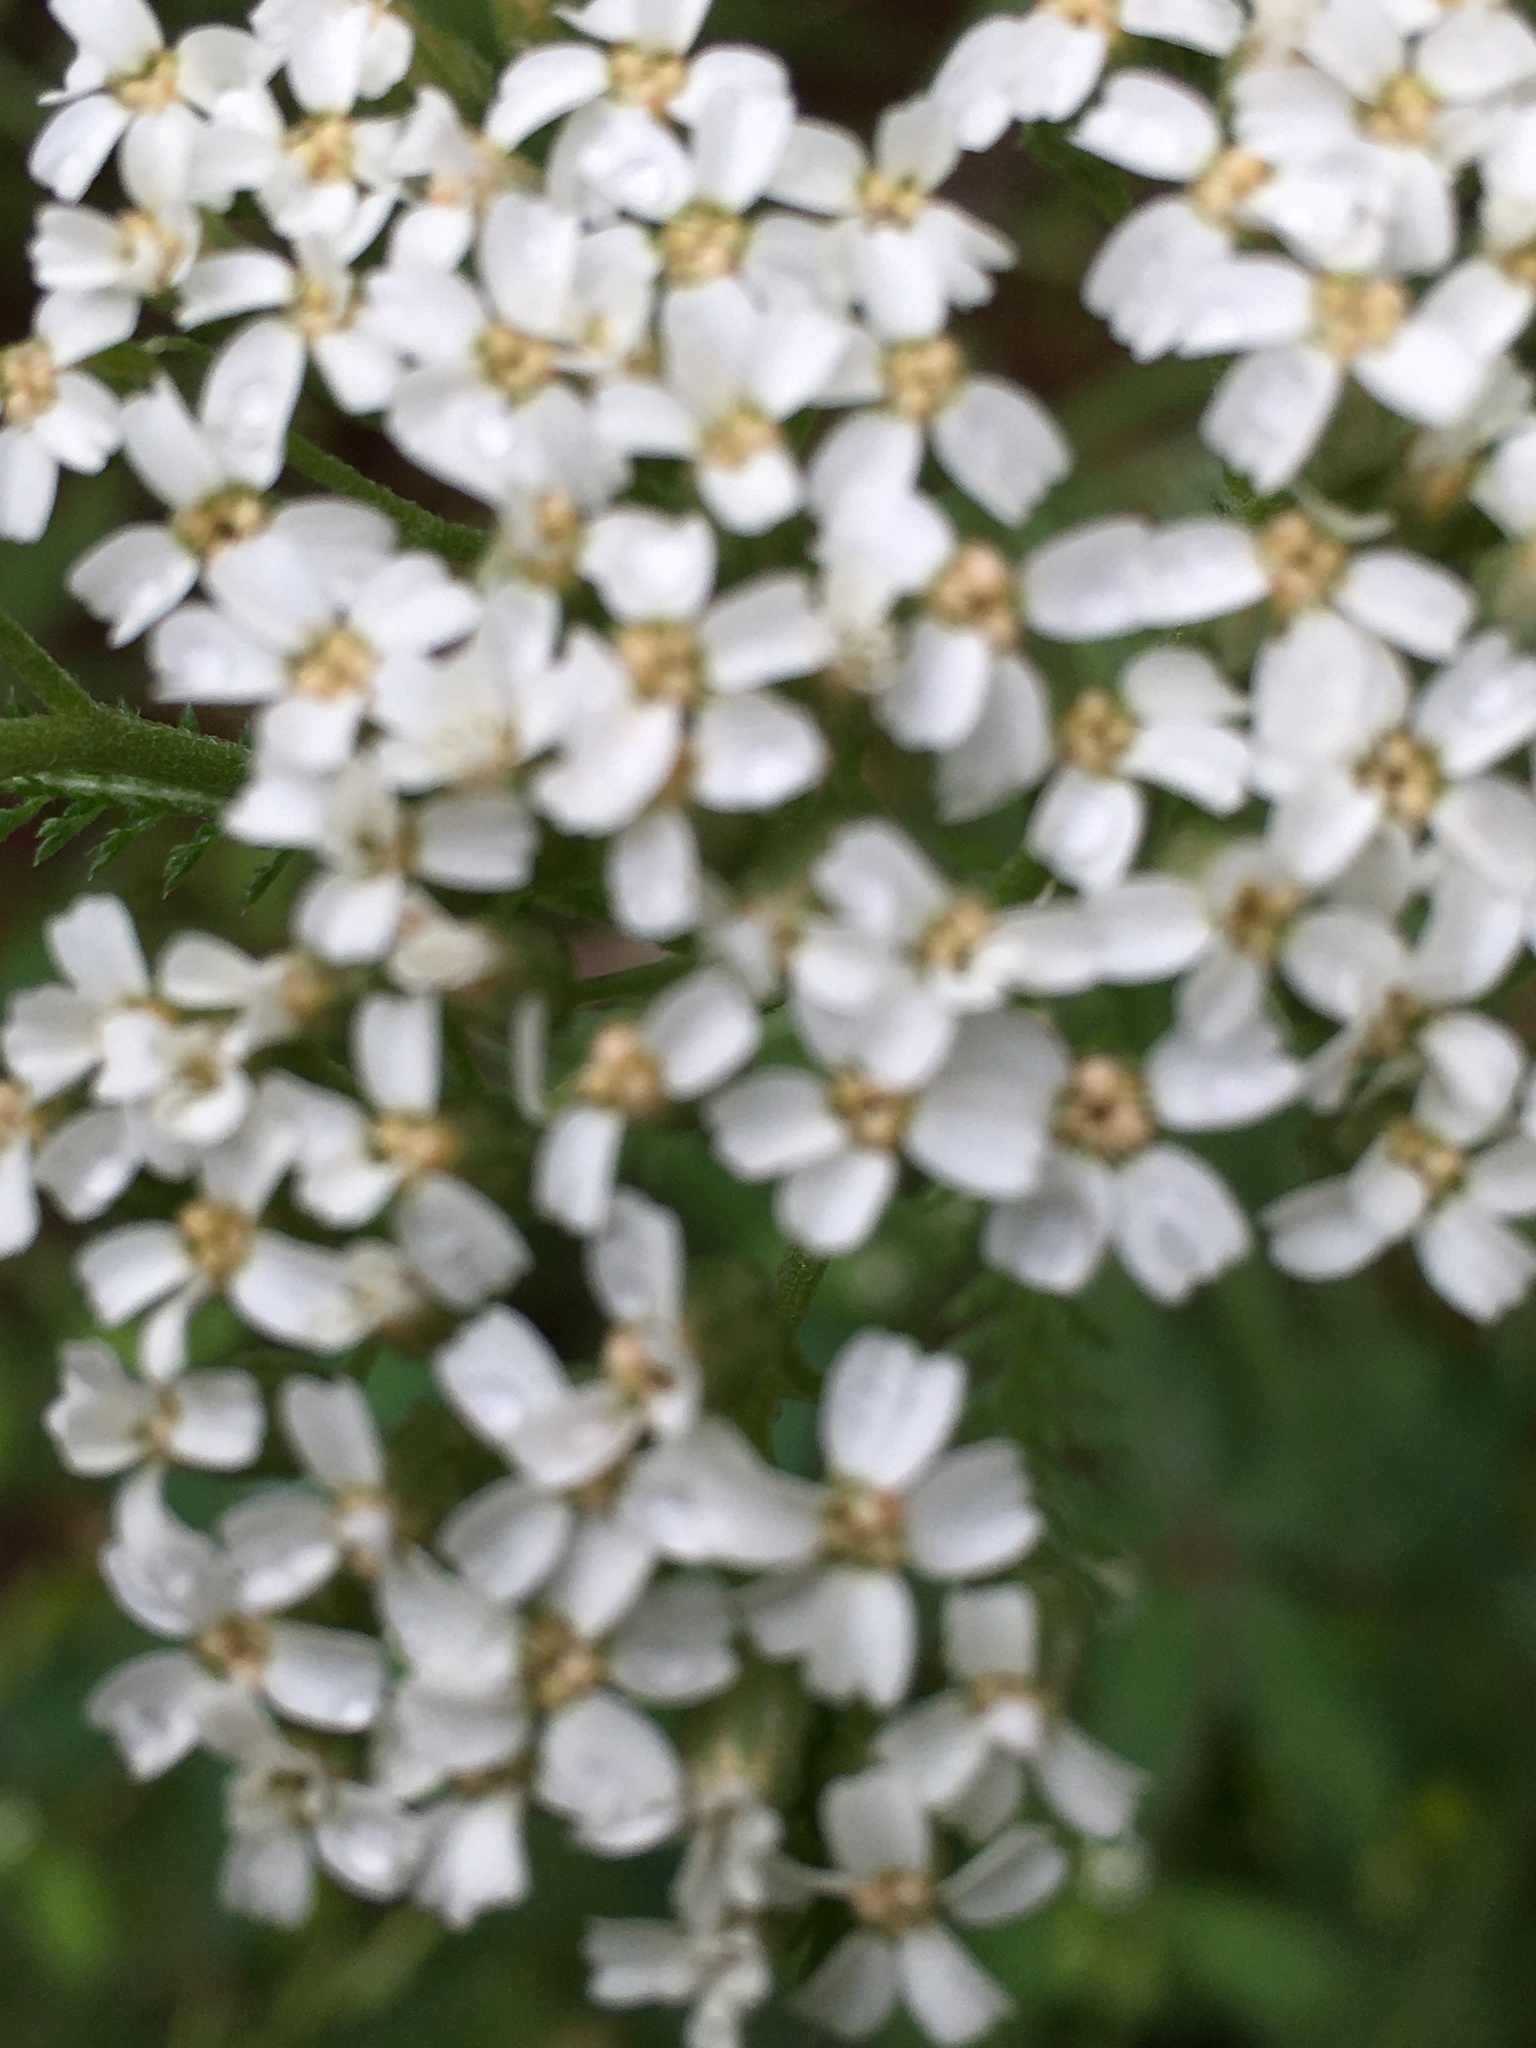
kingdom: Plantae
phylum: Tracheophyta
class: Magnoliopsida
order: Asterales
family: Asteraceae
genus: Achillea
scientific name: Achillea millefolium
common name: Yarrow
